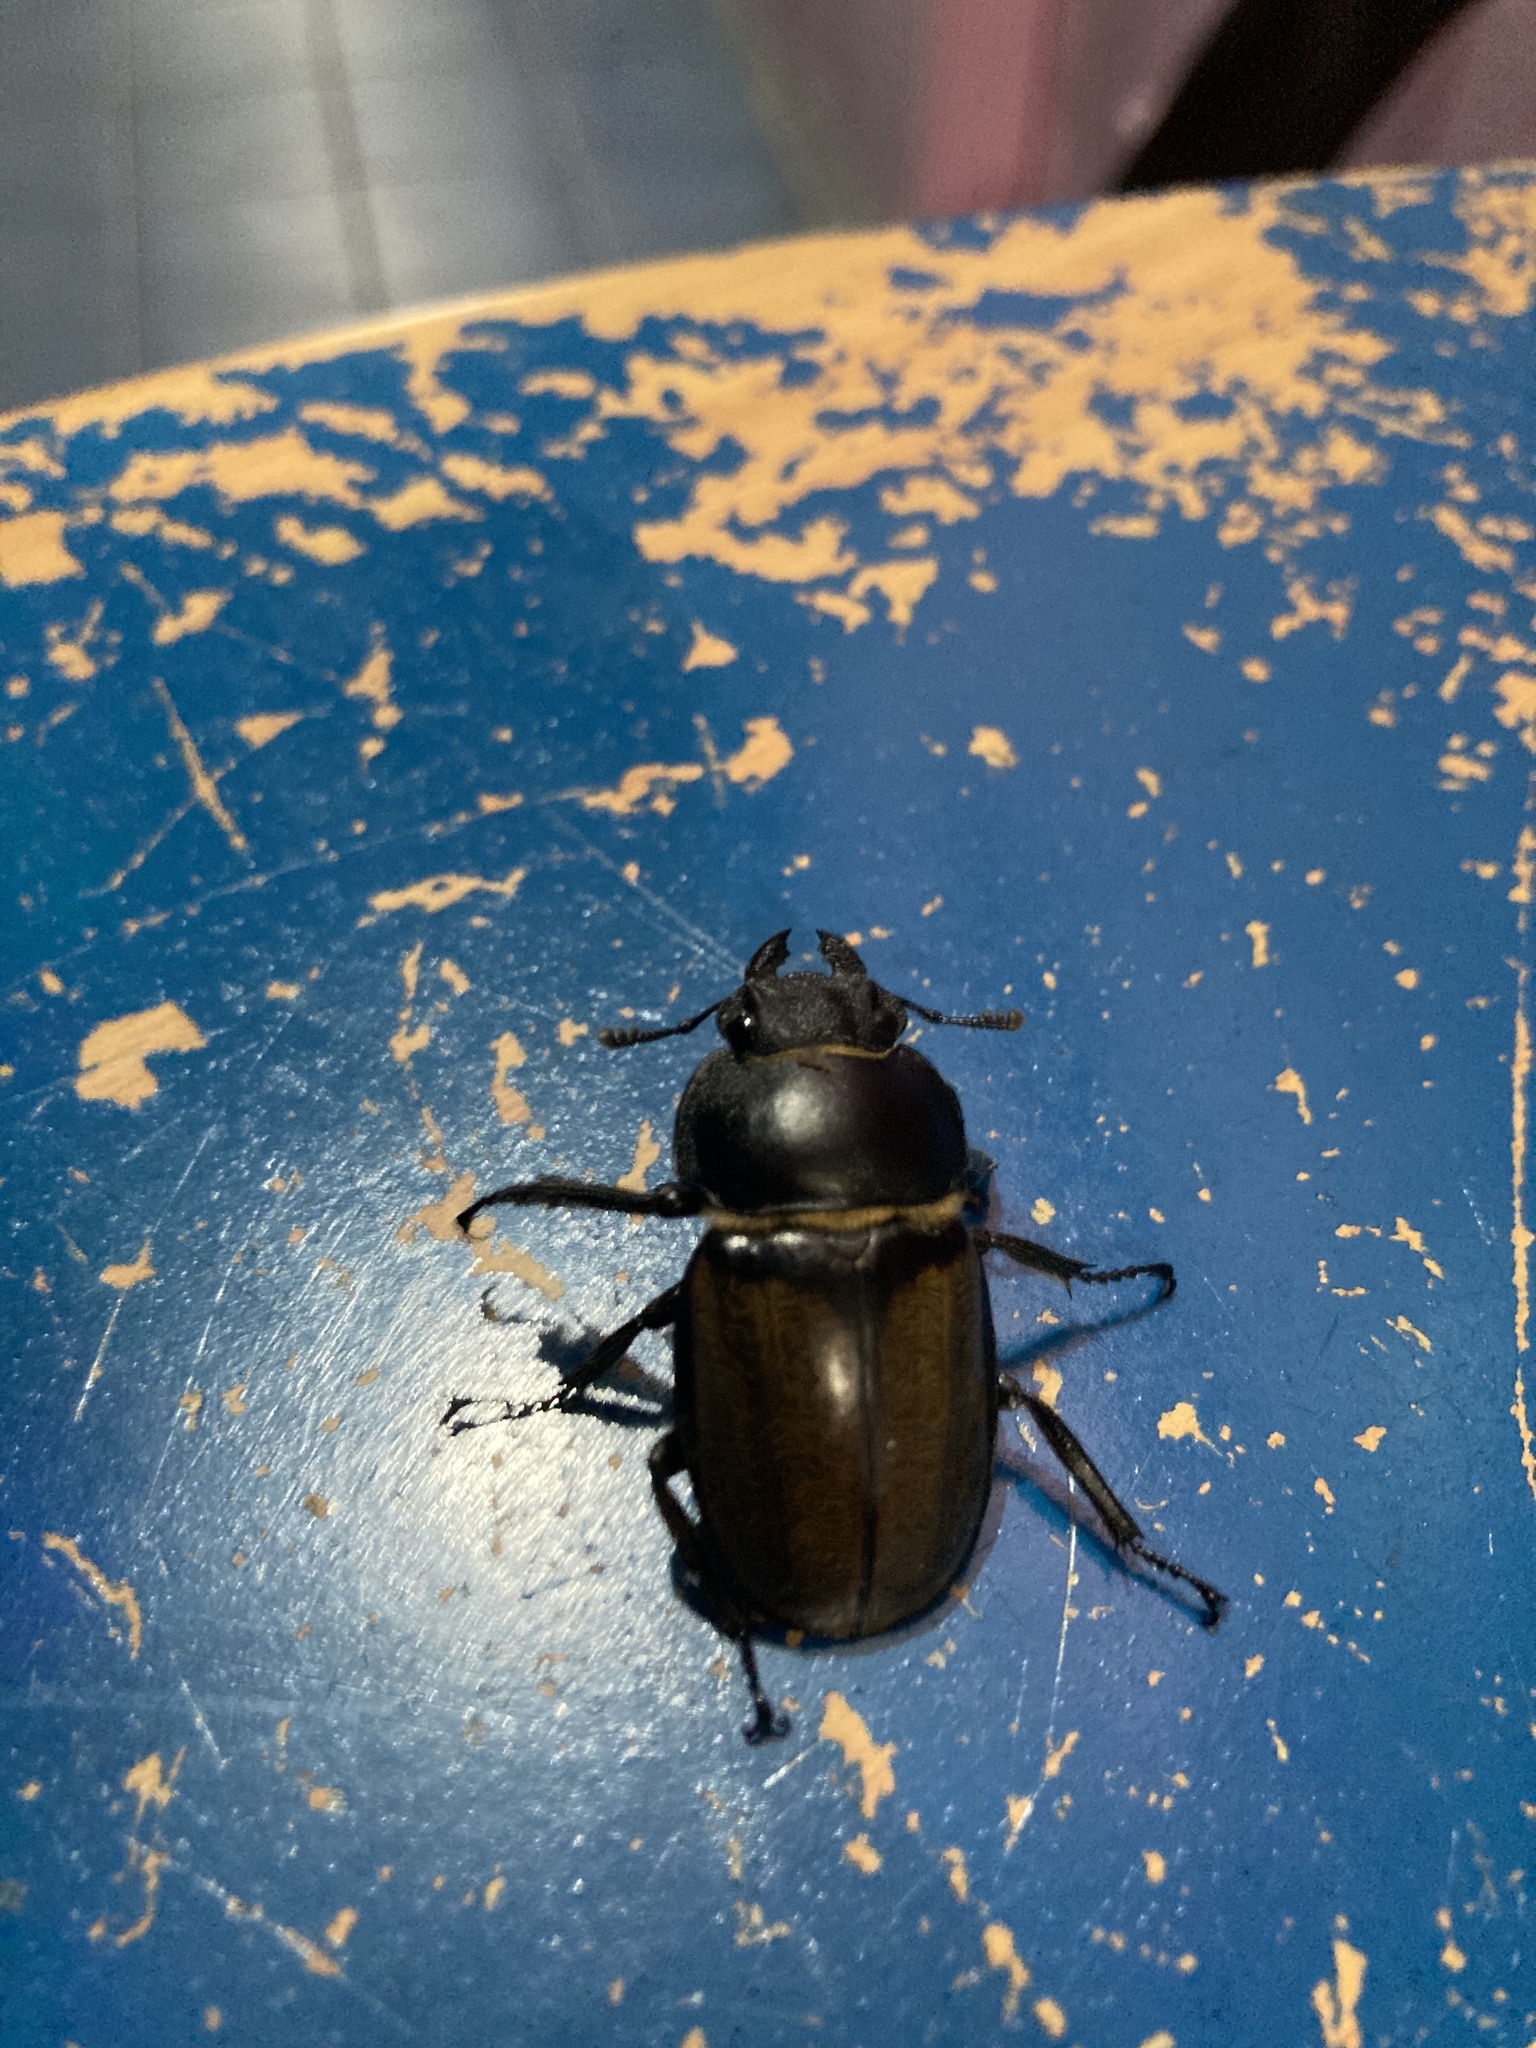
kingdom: Animalia
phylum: Arthropoda
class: Insecta
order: Coleoptera
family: Lucanidae
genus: Odontolabis
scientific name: Odontolabis cypri
